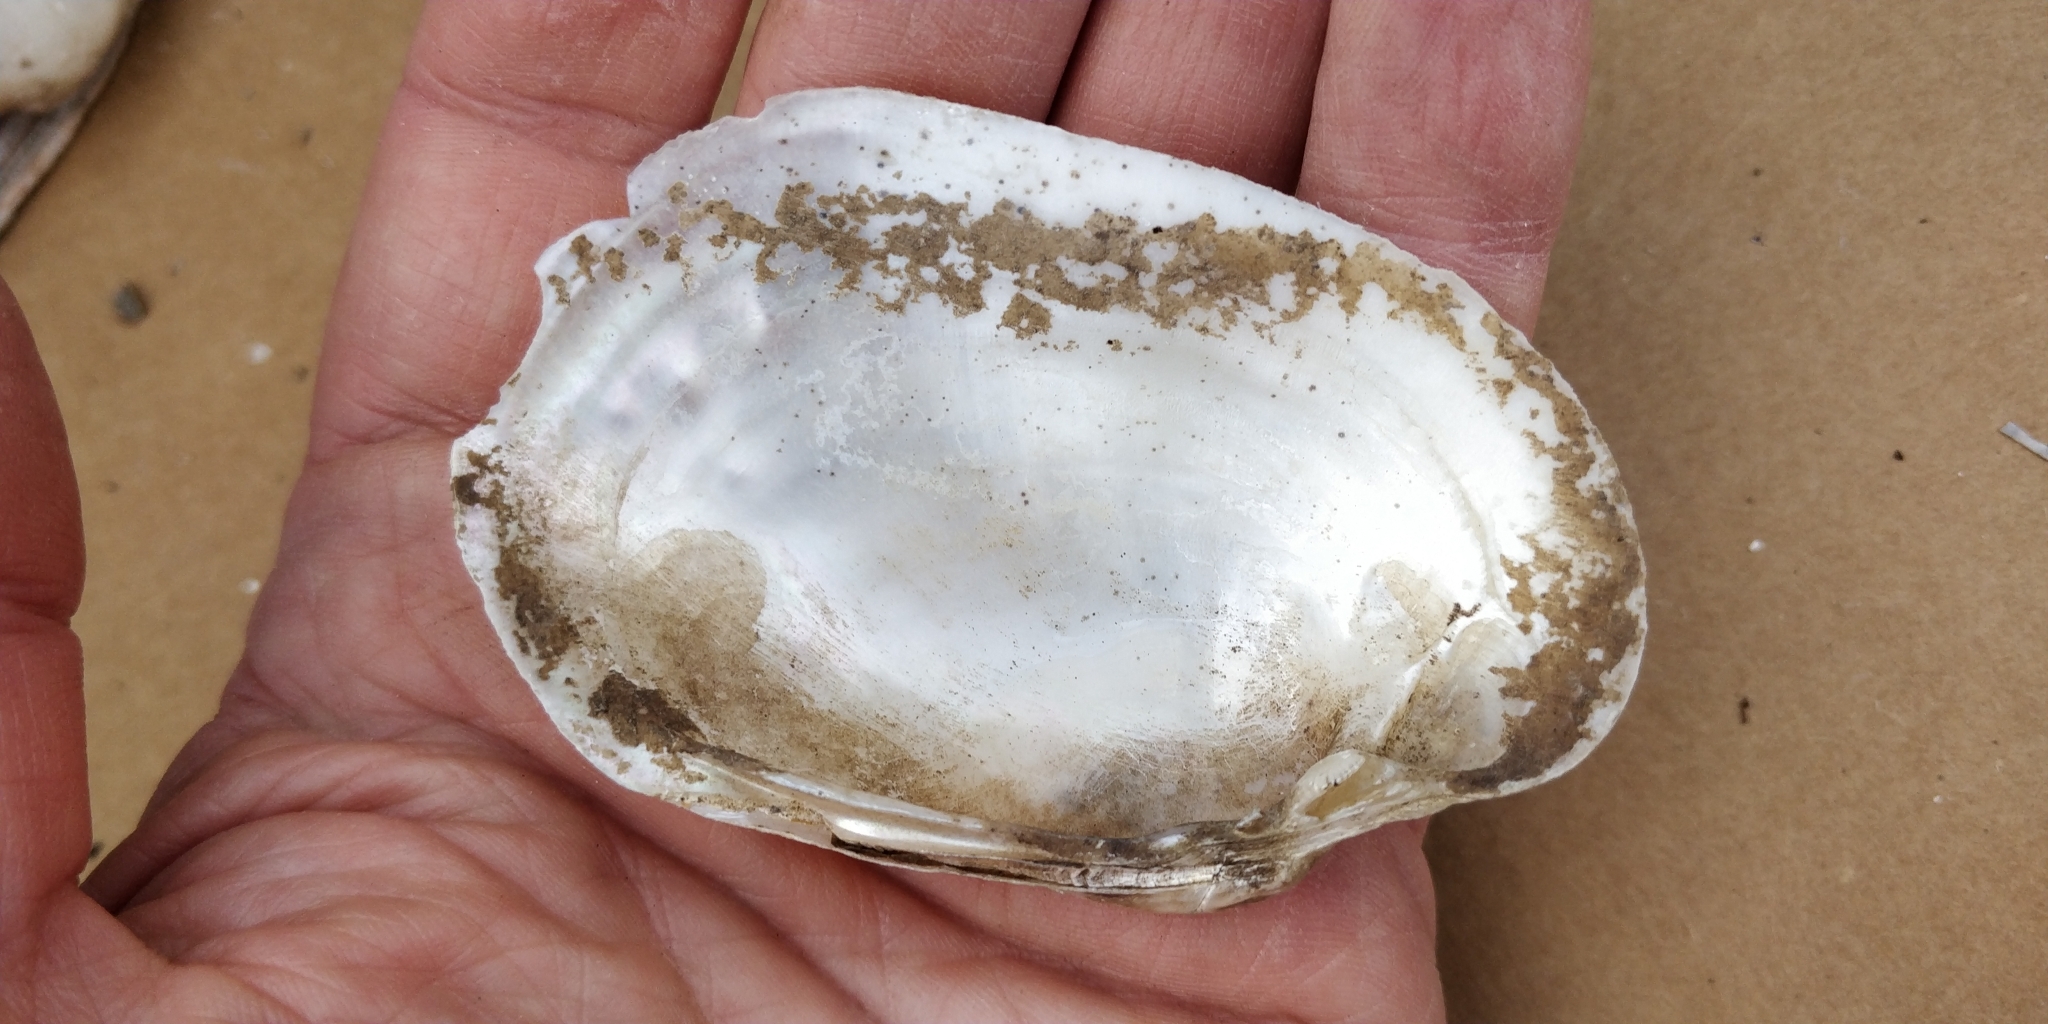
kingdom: Animalia
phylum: Mollusca
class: Bivalvia
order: Unionida
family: Unionidae
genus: Lampsilis
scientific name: Lampsilis cardium
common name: Plain pocketbook
